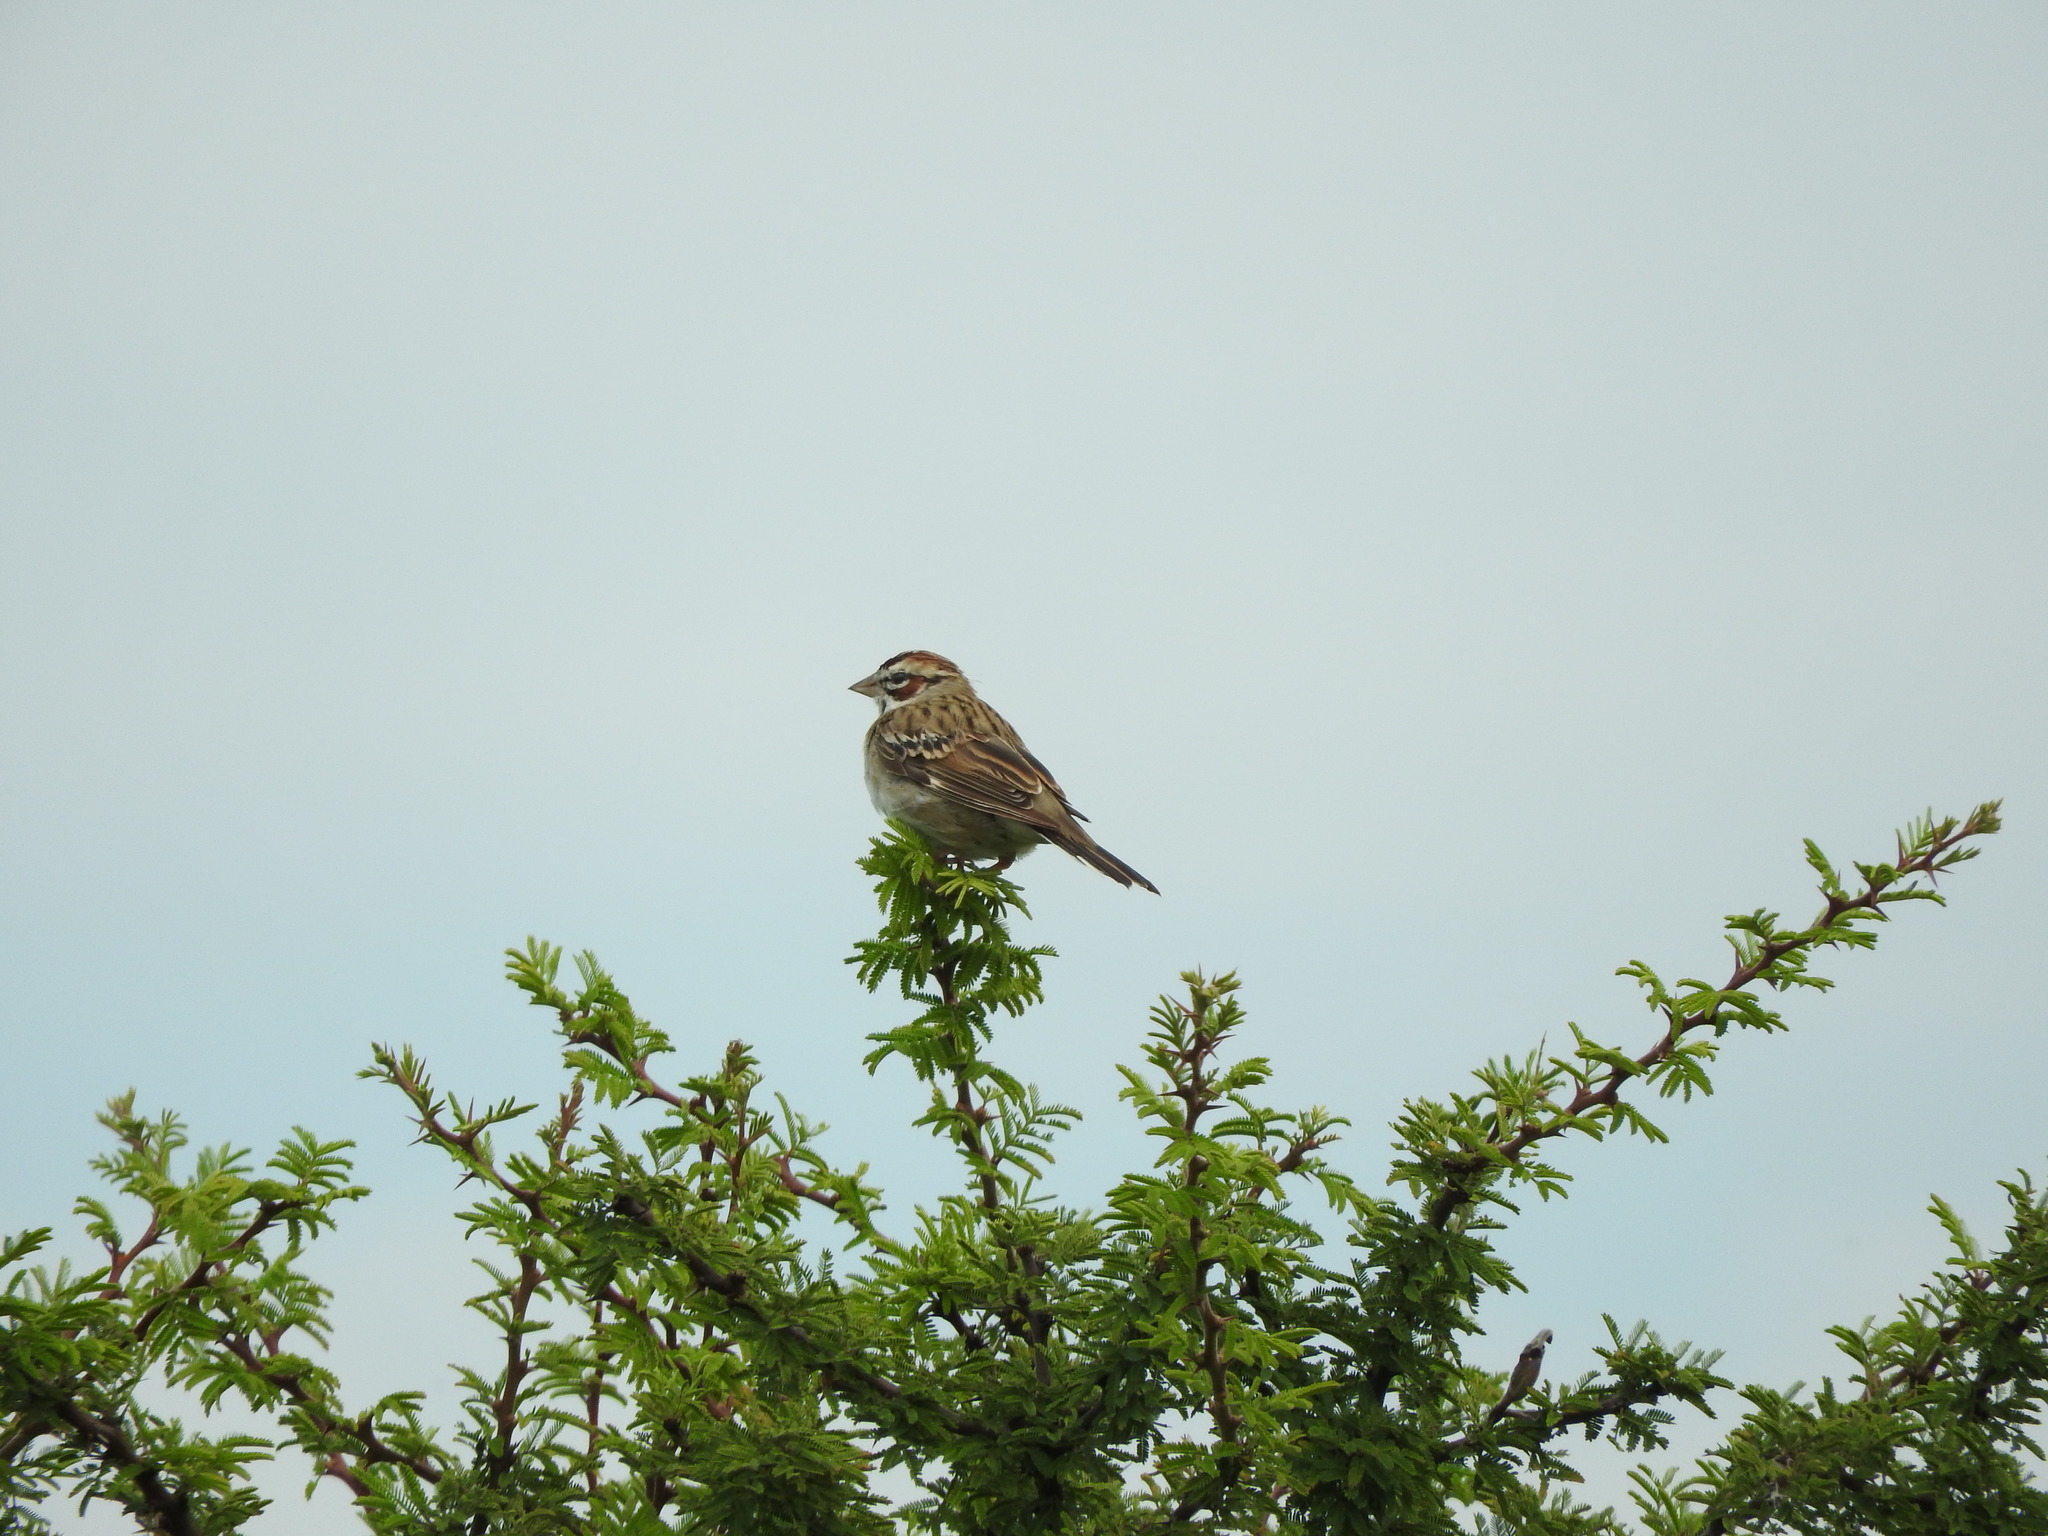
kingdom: Animalia
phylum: Chordata
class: Aves
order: Passeriformes
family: Passerellidae
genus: Chondestes
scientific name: Chondestes grammacus
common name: Lark sparrow
